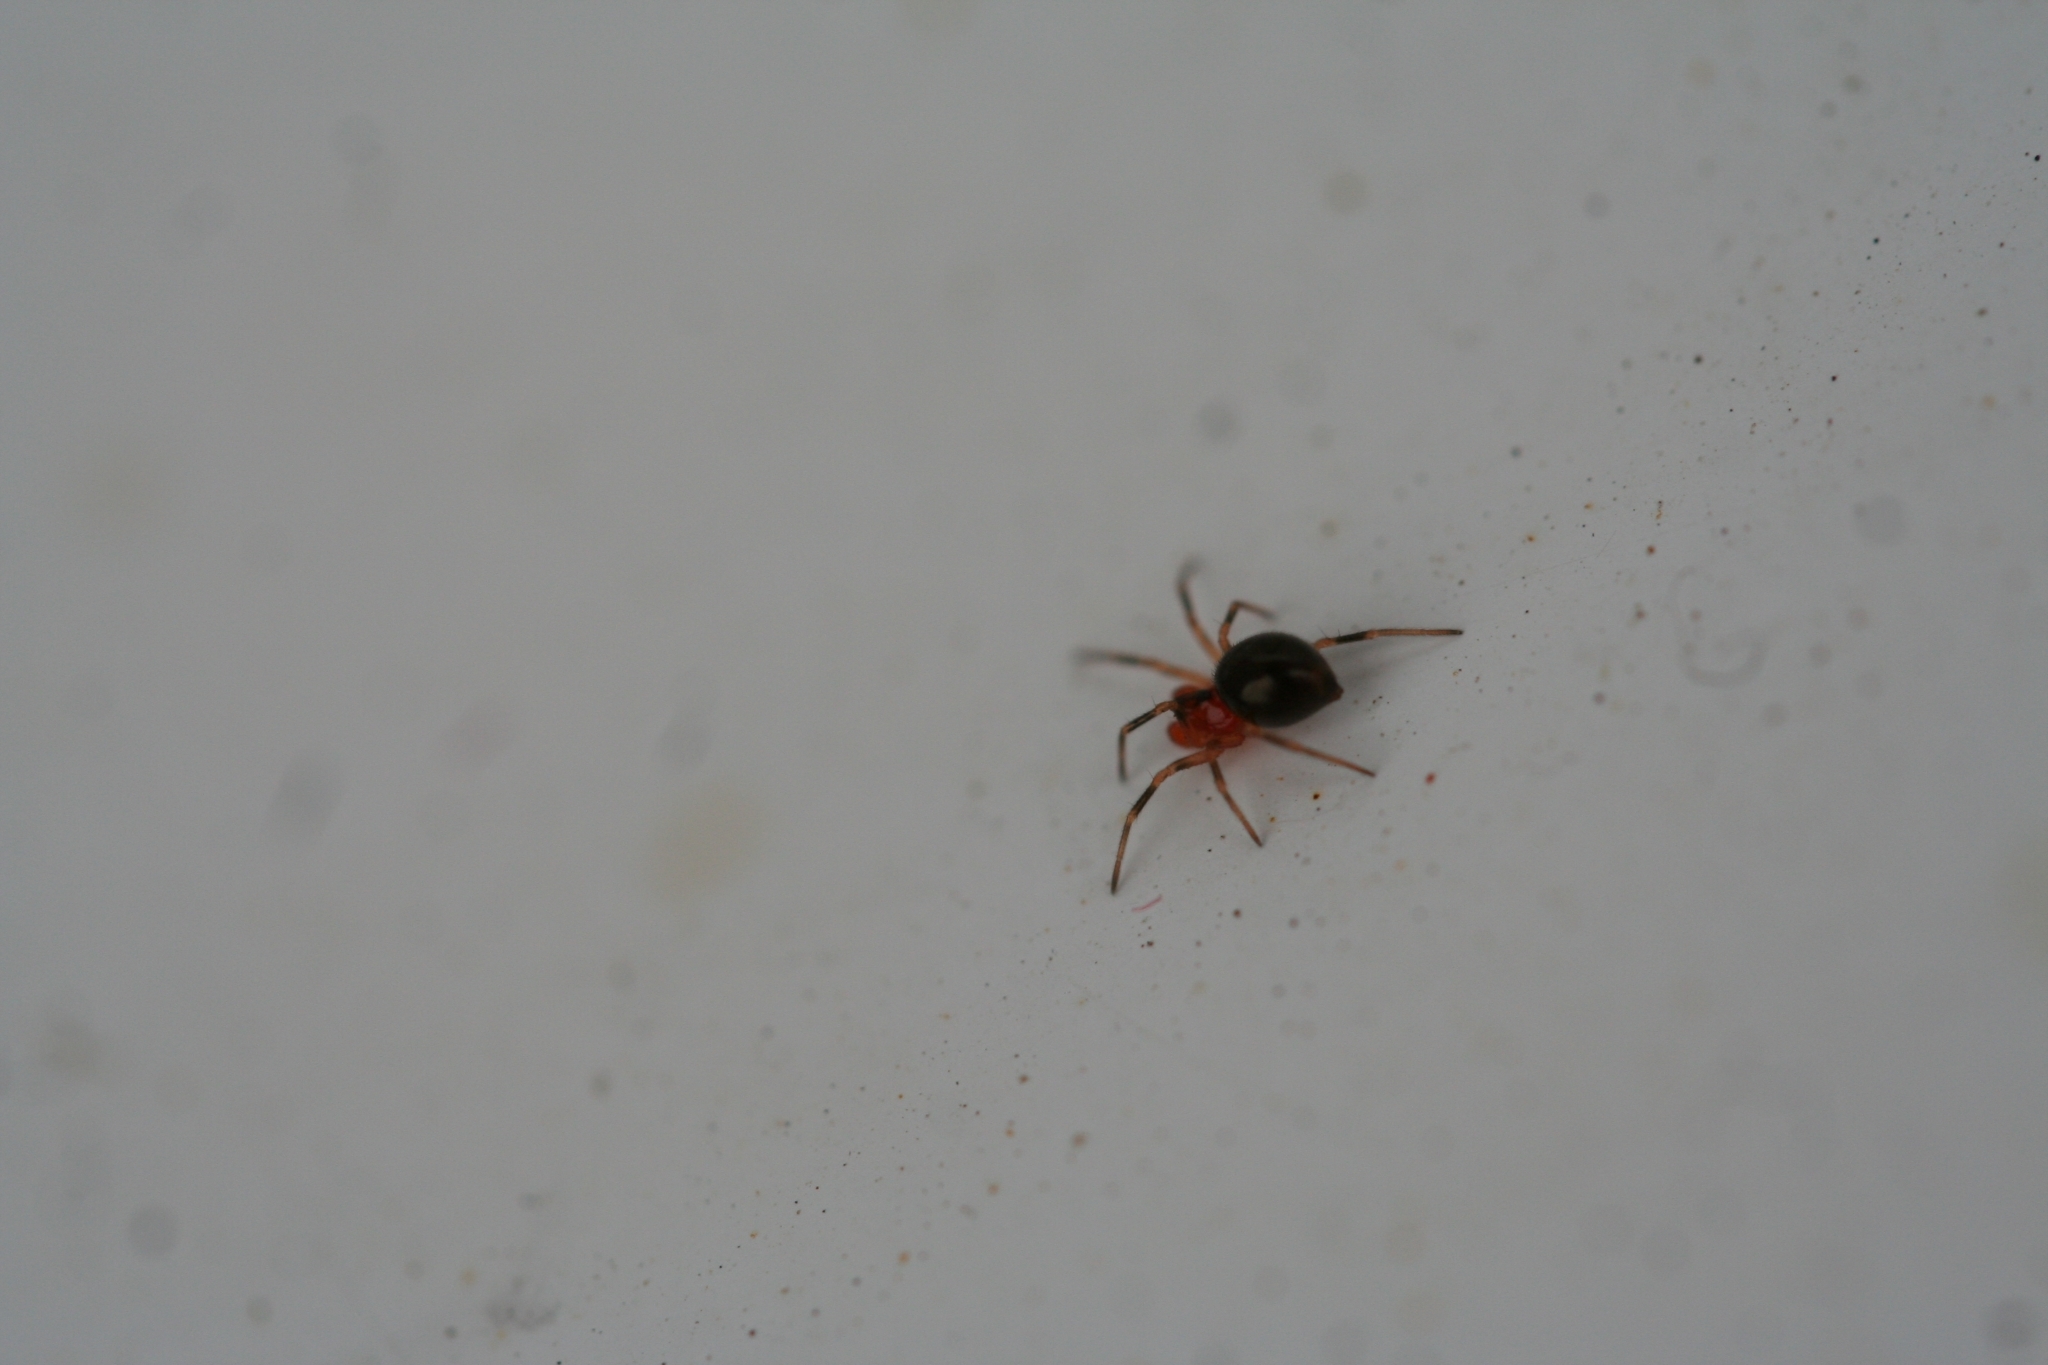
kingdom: Animalia
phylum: Arthropoda
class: Arachnida
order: Araneae
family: Linyphiidae
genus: Trematocephalus
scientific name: Trematocephalus cristatus
